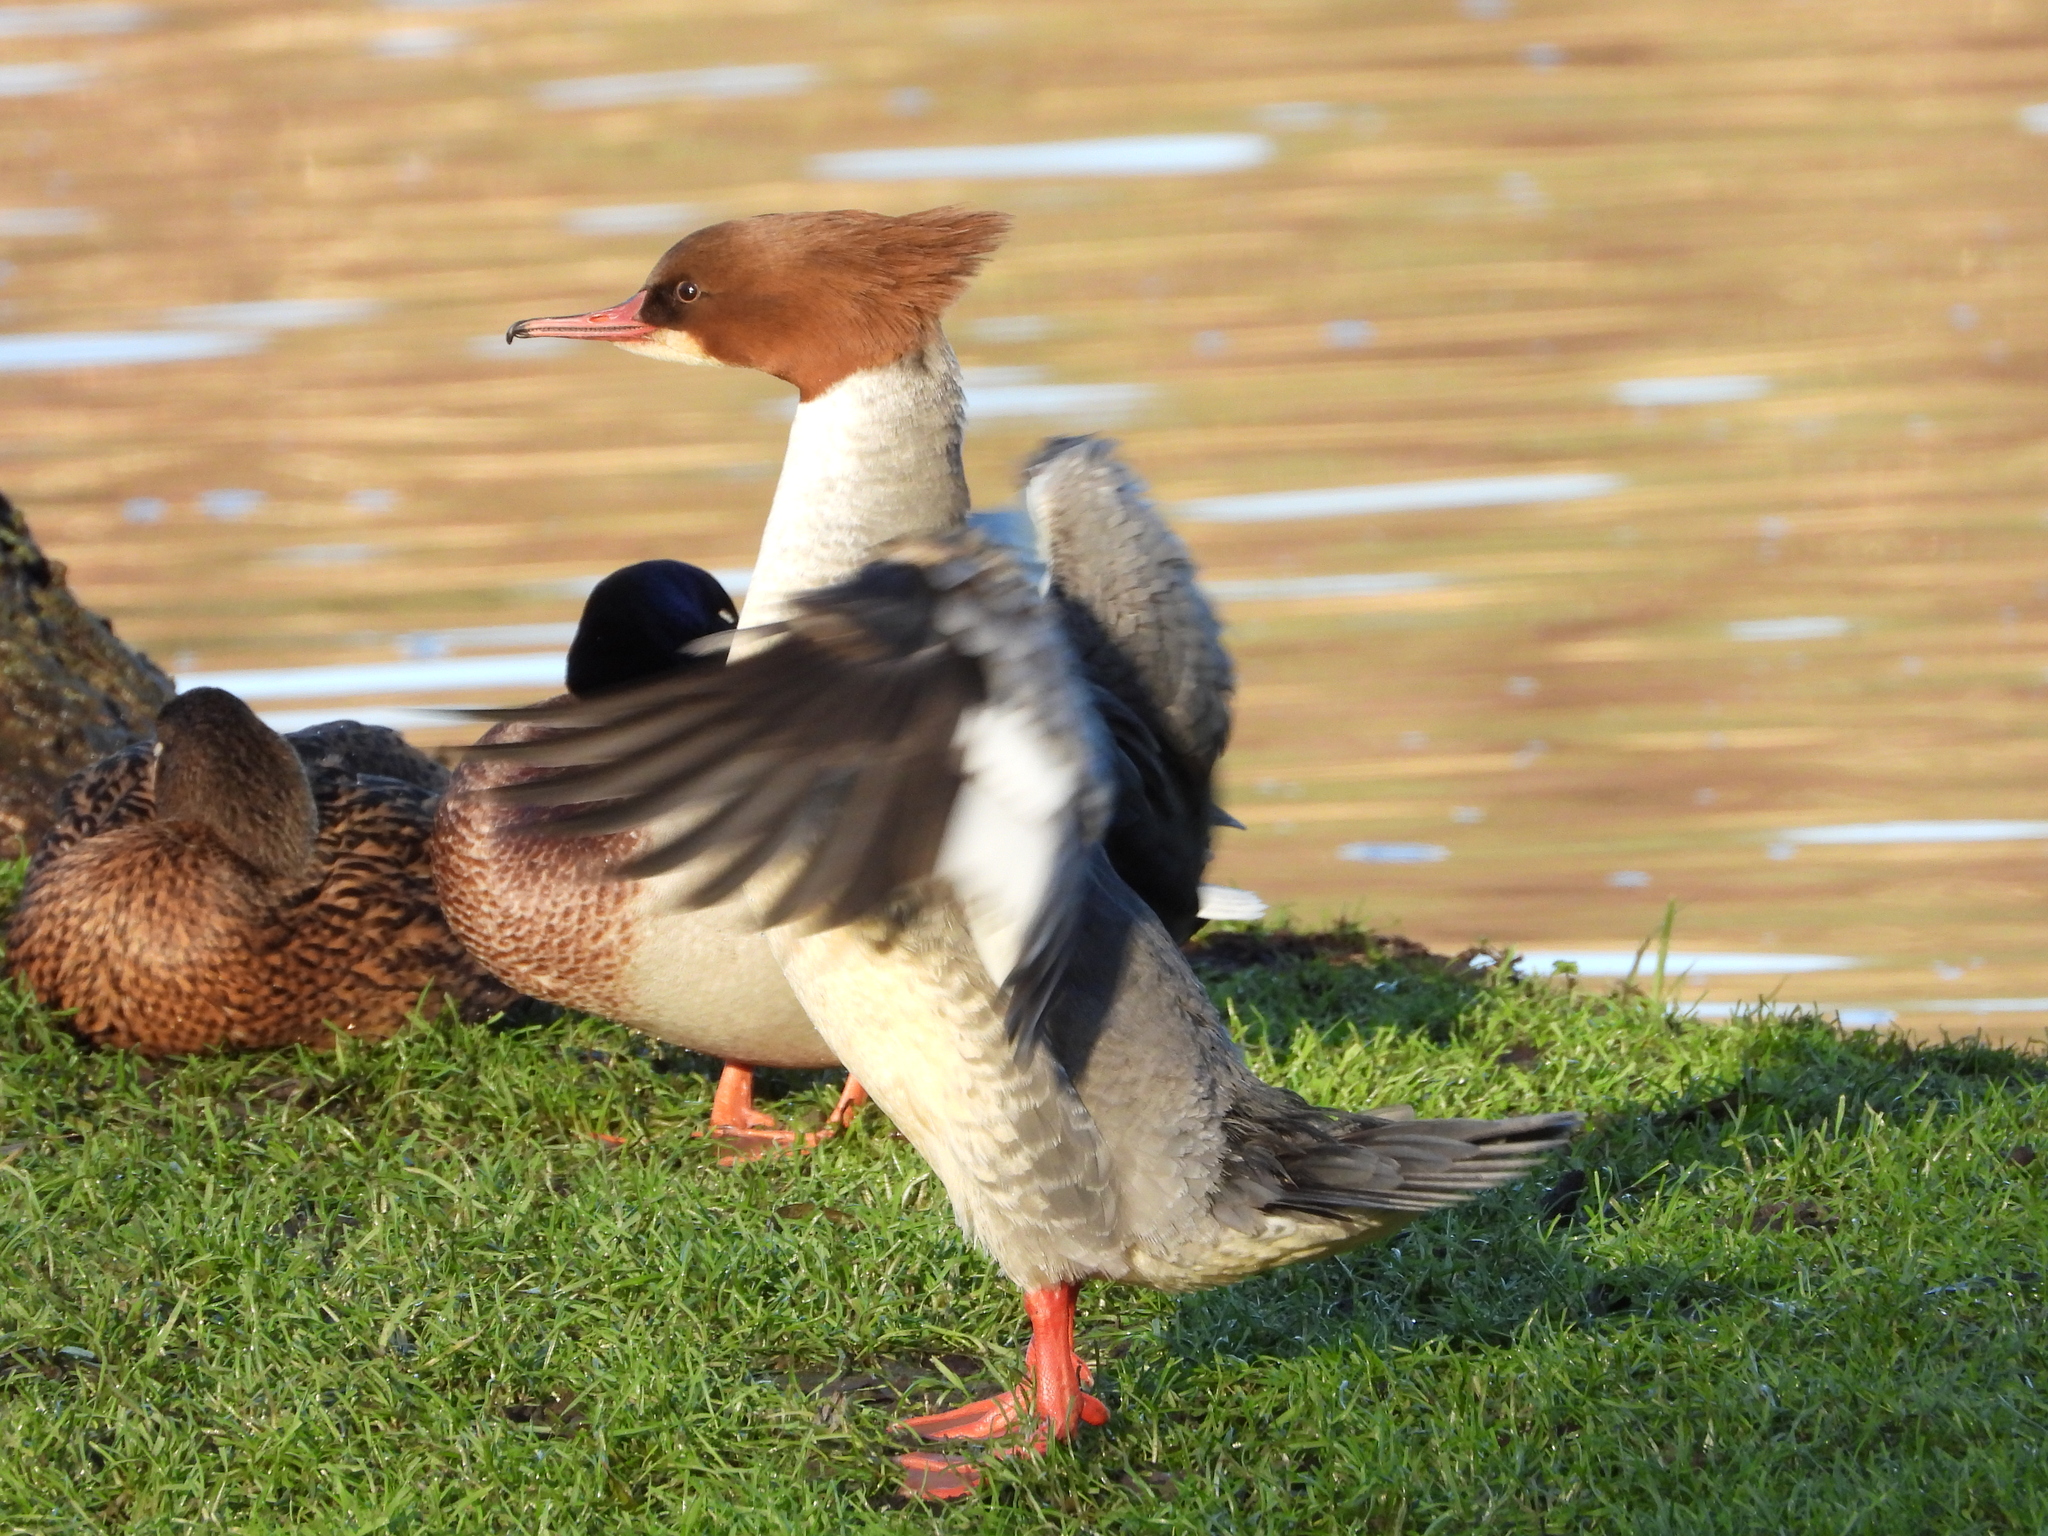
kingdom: Animalia
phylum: Chordata
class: Aves
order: Anseriformes
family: Anatidae
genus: Mergus
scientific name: Mergus merganser
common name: Common merganser
